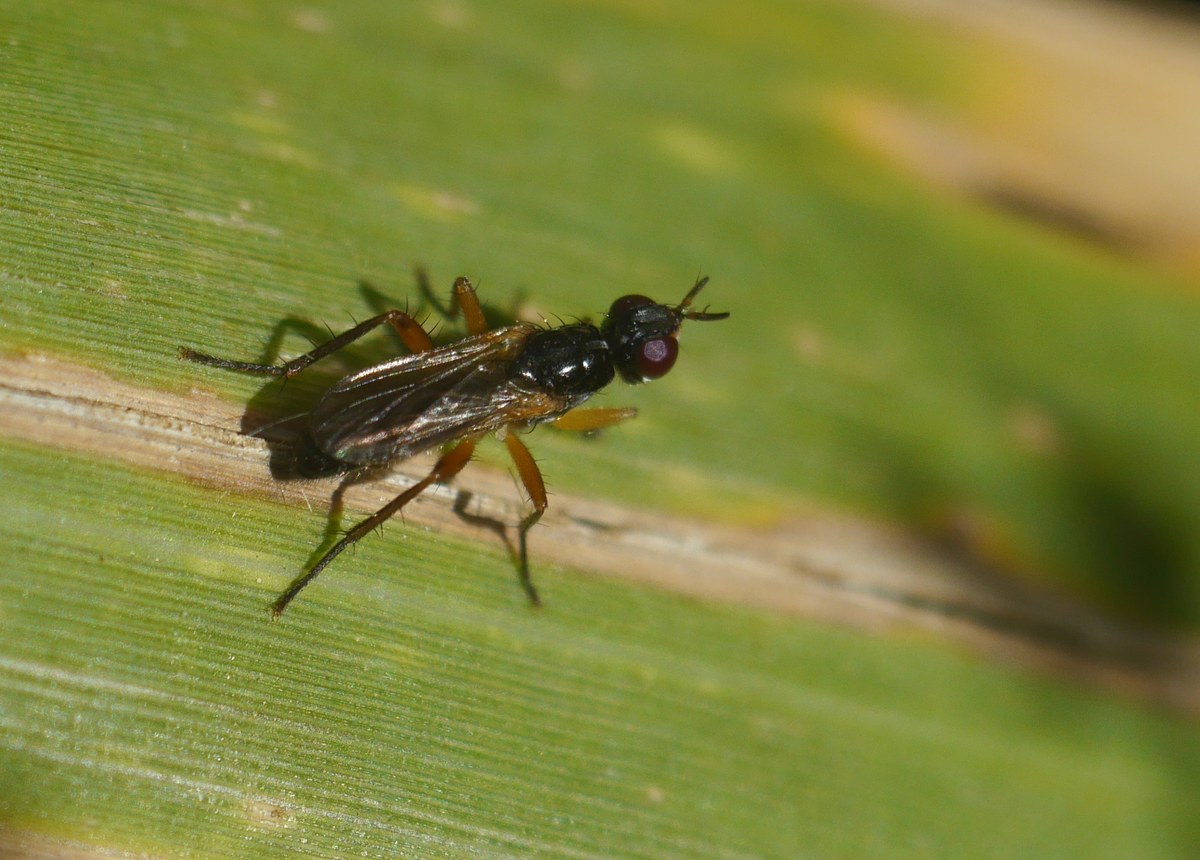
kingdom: Animalia
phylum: Arthropoda
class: Insecta
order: Diptera
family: Scathophagidae
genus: Cordilura
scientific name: Cordilura albilabris
